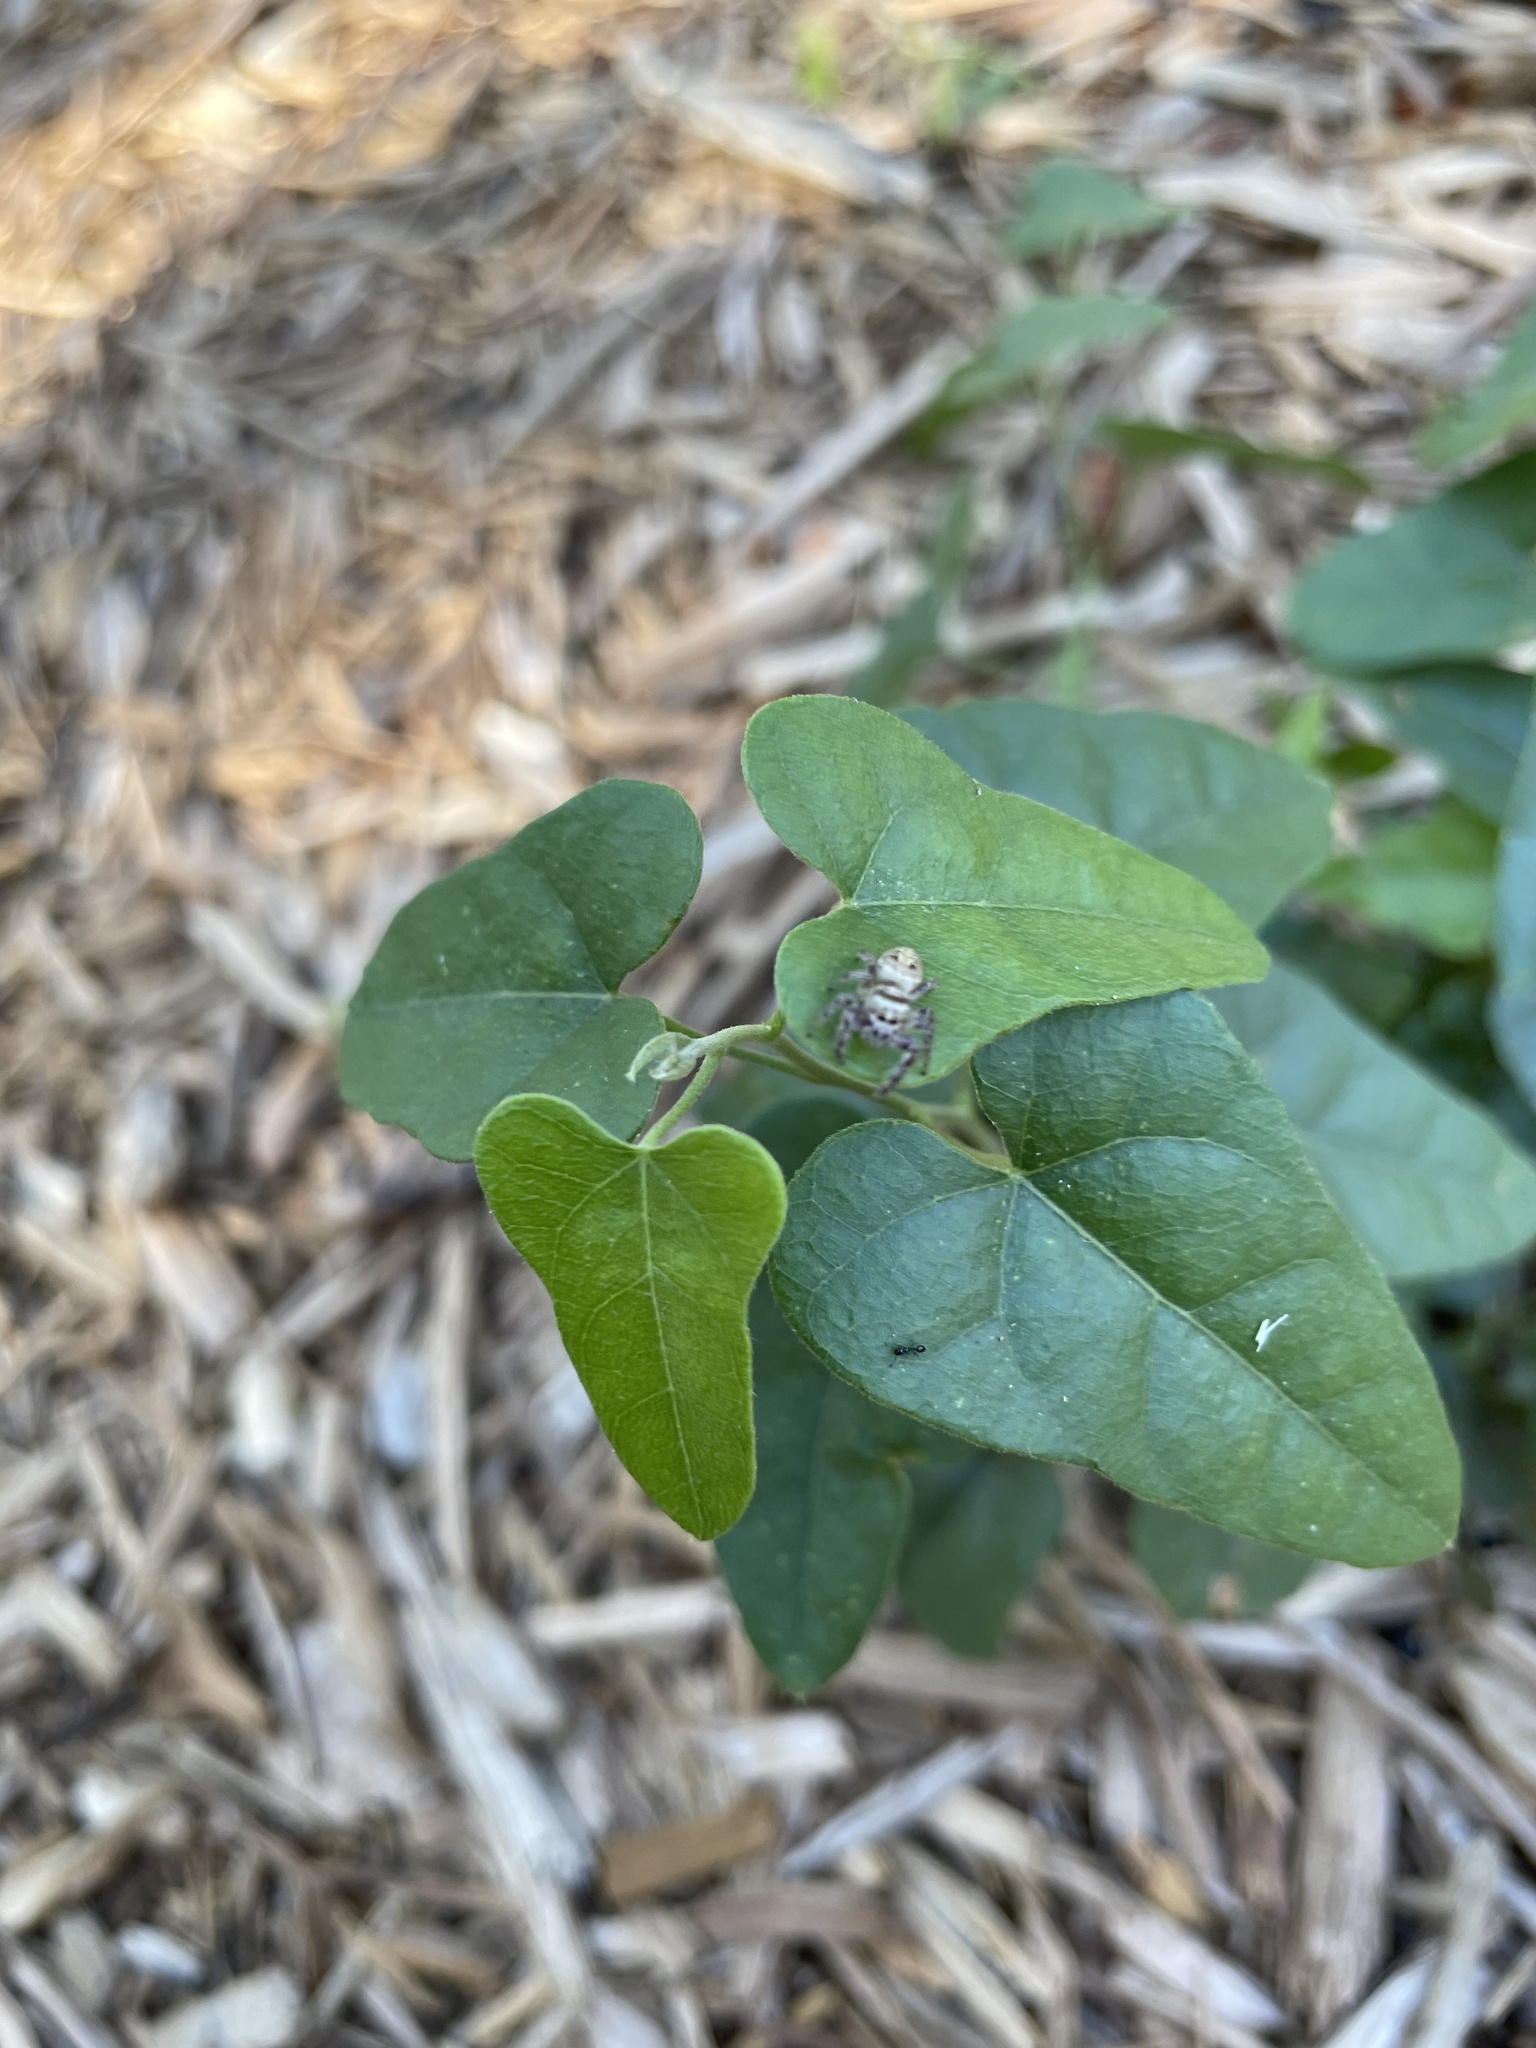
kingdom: Plantae
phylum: Tracheophyta
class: Magnoliopsida
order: Ranunculales
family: Menispermaceae
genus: Cocculus
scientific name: Cocculus carolinus
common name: Carolina moonseed
